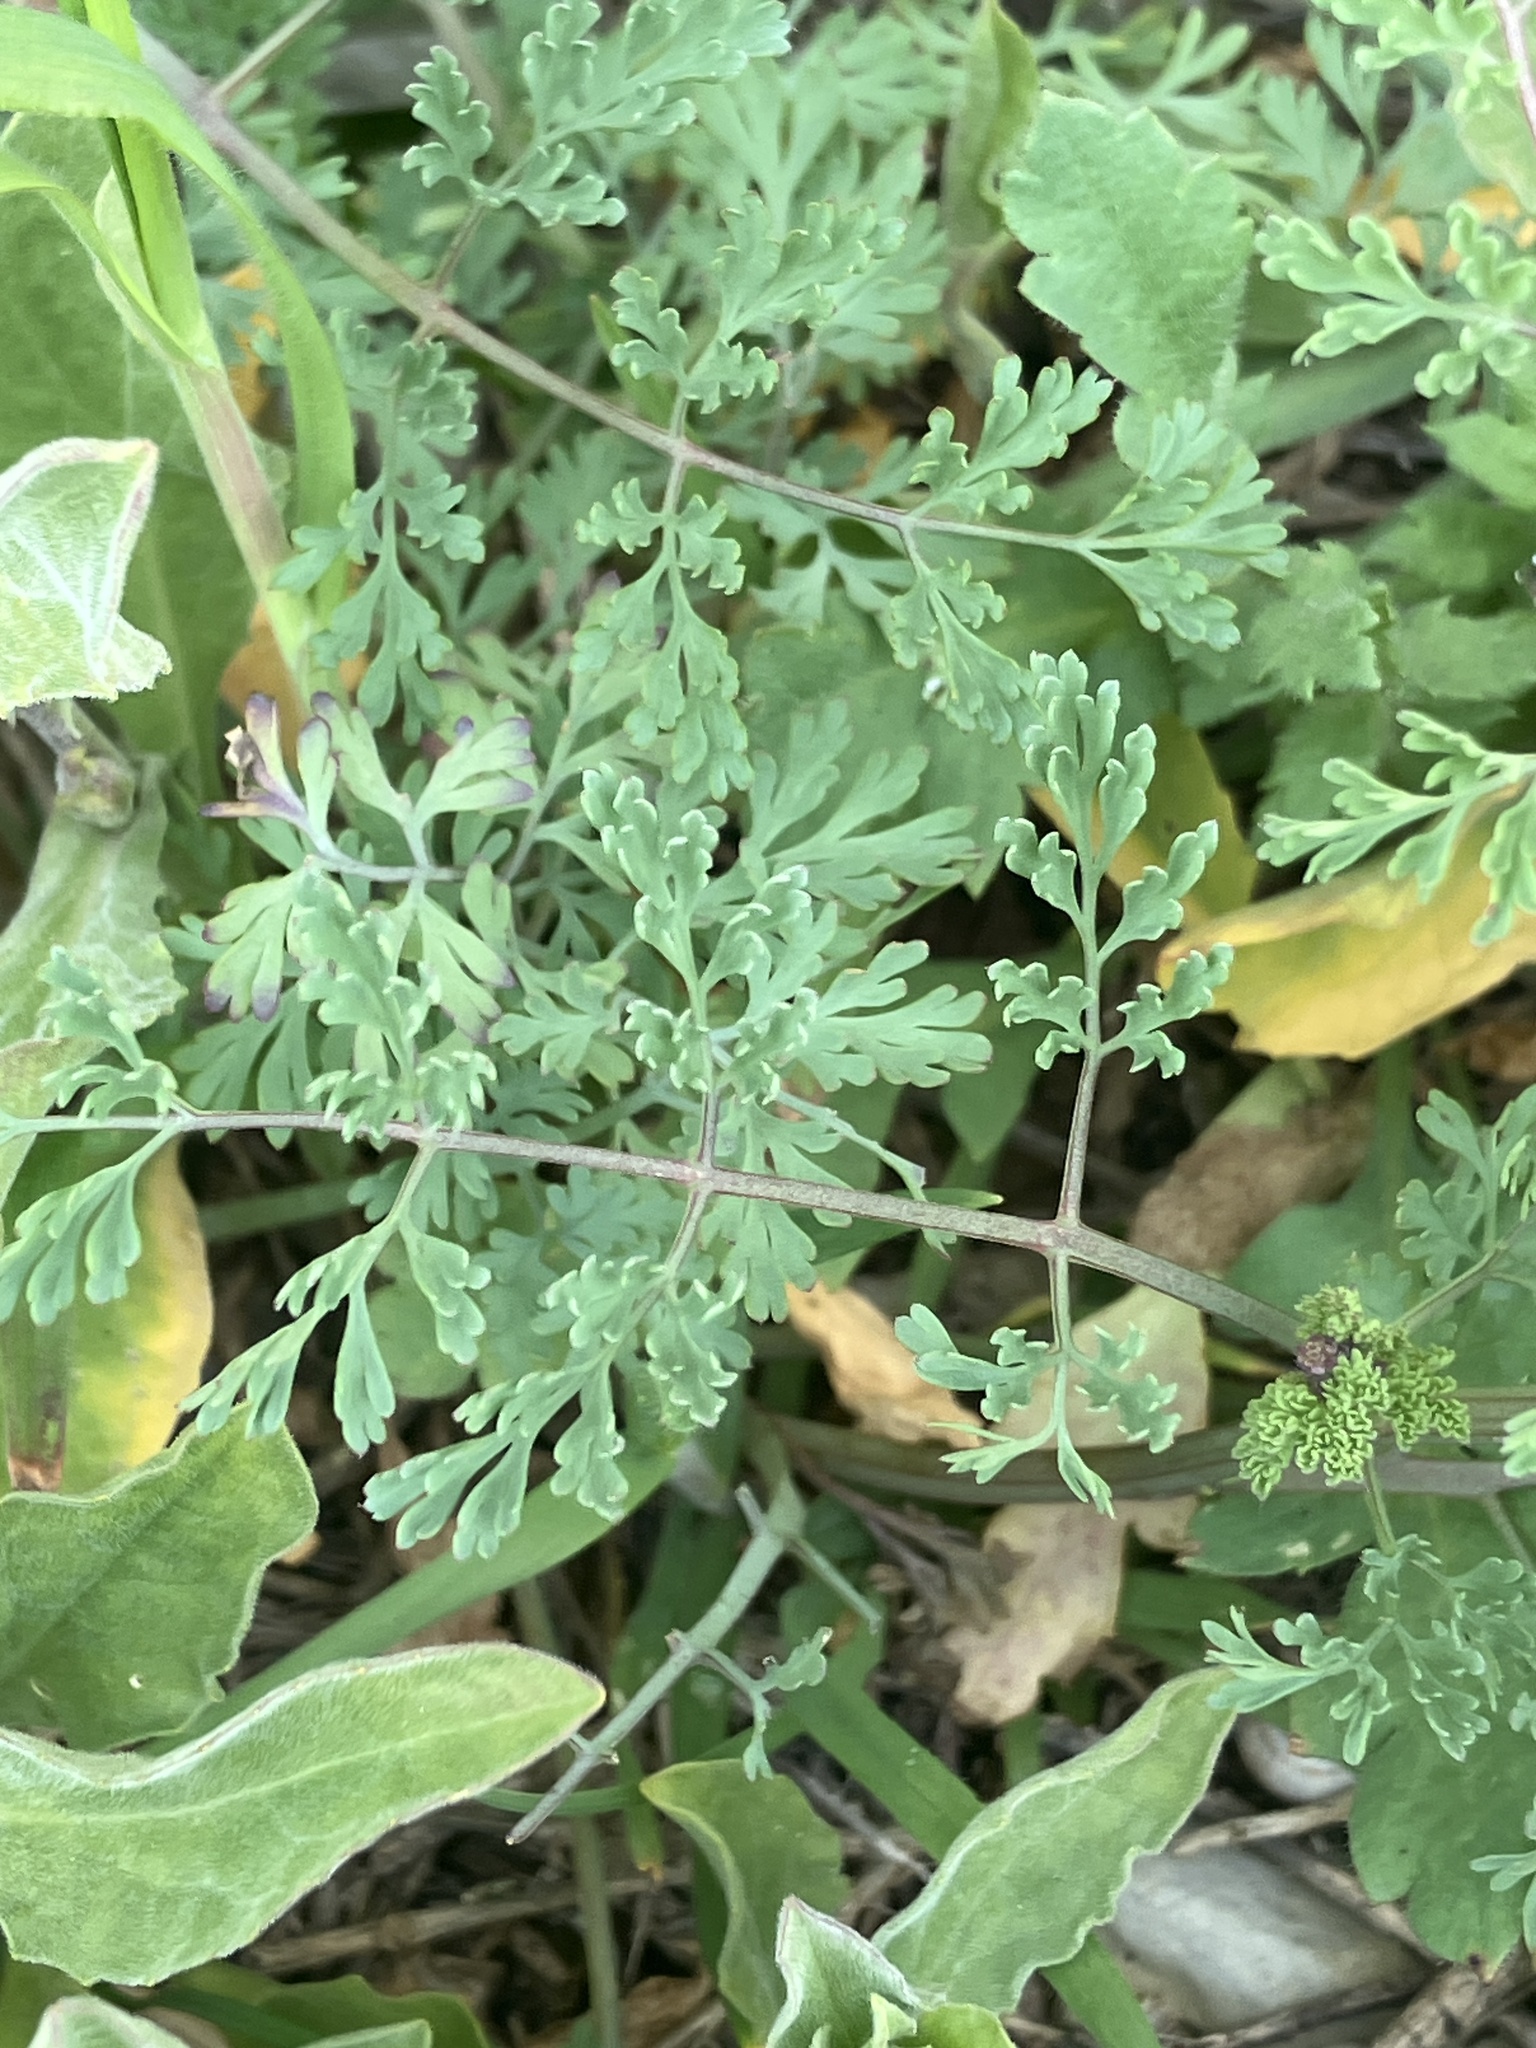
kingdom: Plantae
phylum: Tracheophyta
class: Magnoliopsida
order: Ranunculales
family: Papaveraceae
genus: Fumaria
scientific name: Fumaria officinalis
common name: Common fumitory
